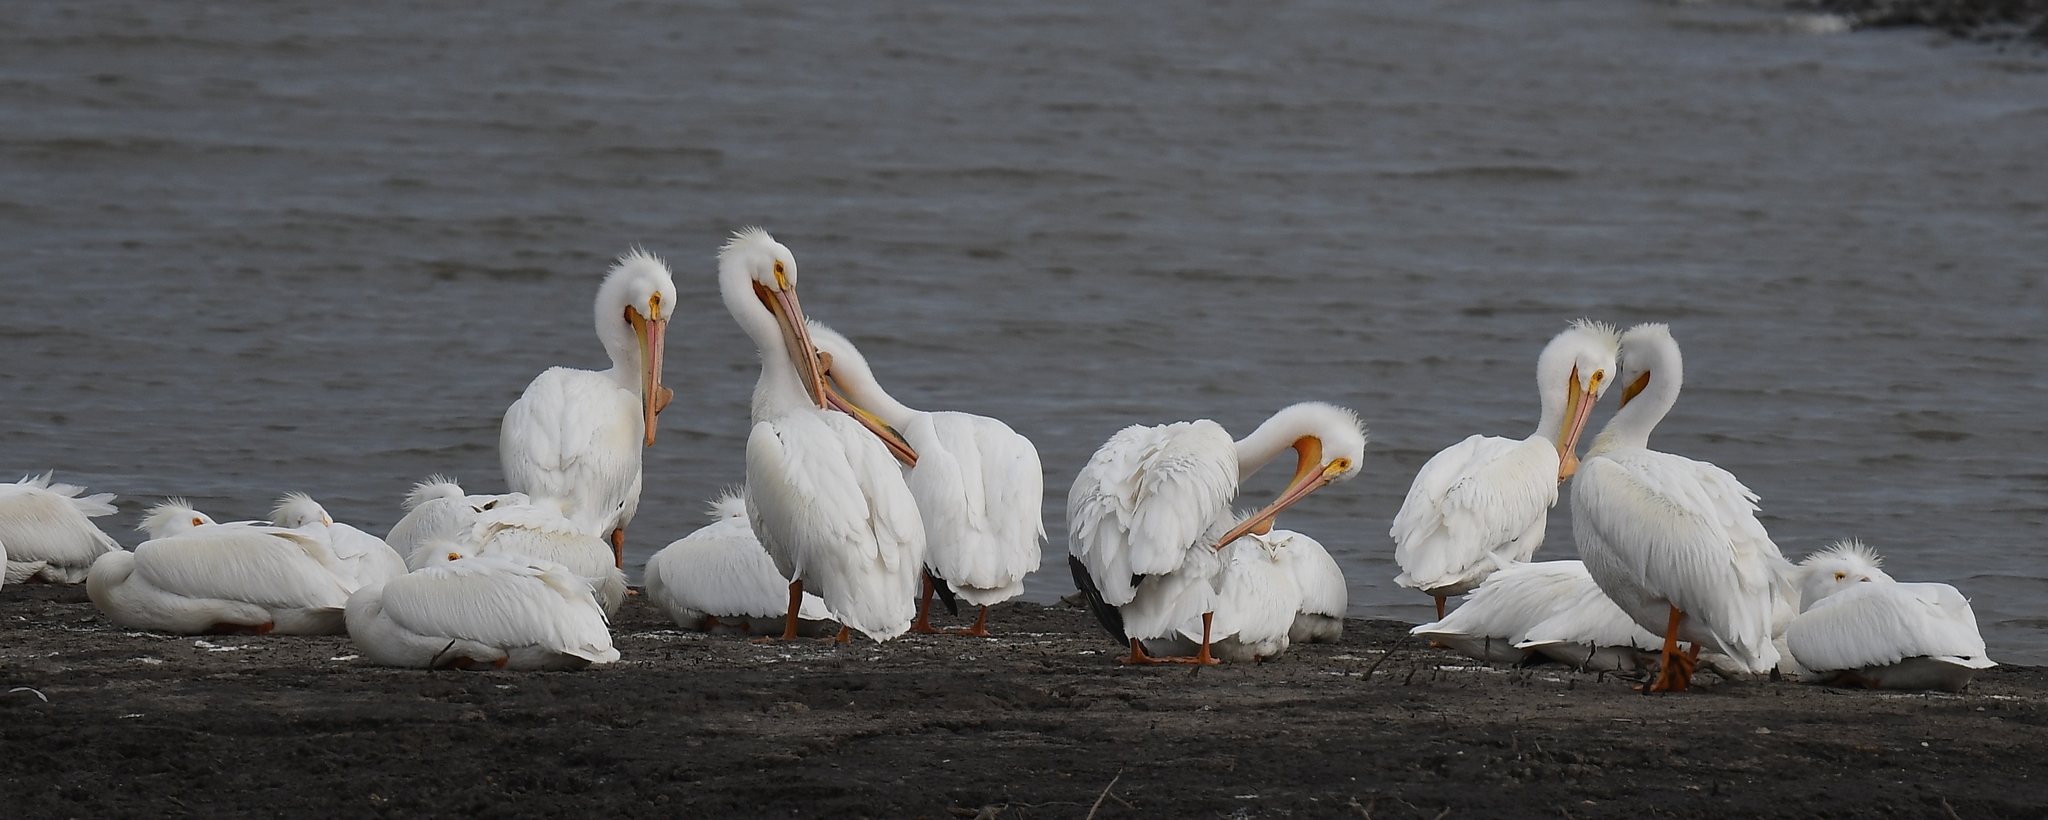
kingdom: Animalia
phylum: Chordata
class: Aves
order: Pelecaniformes
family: Pelecanidae
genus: Pelecanus
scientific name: Pelecanus erythrorhynchos
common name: American white pelican
